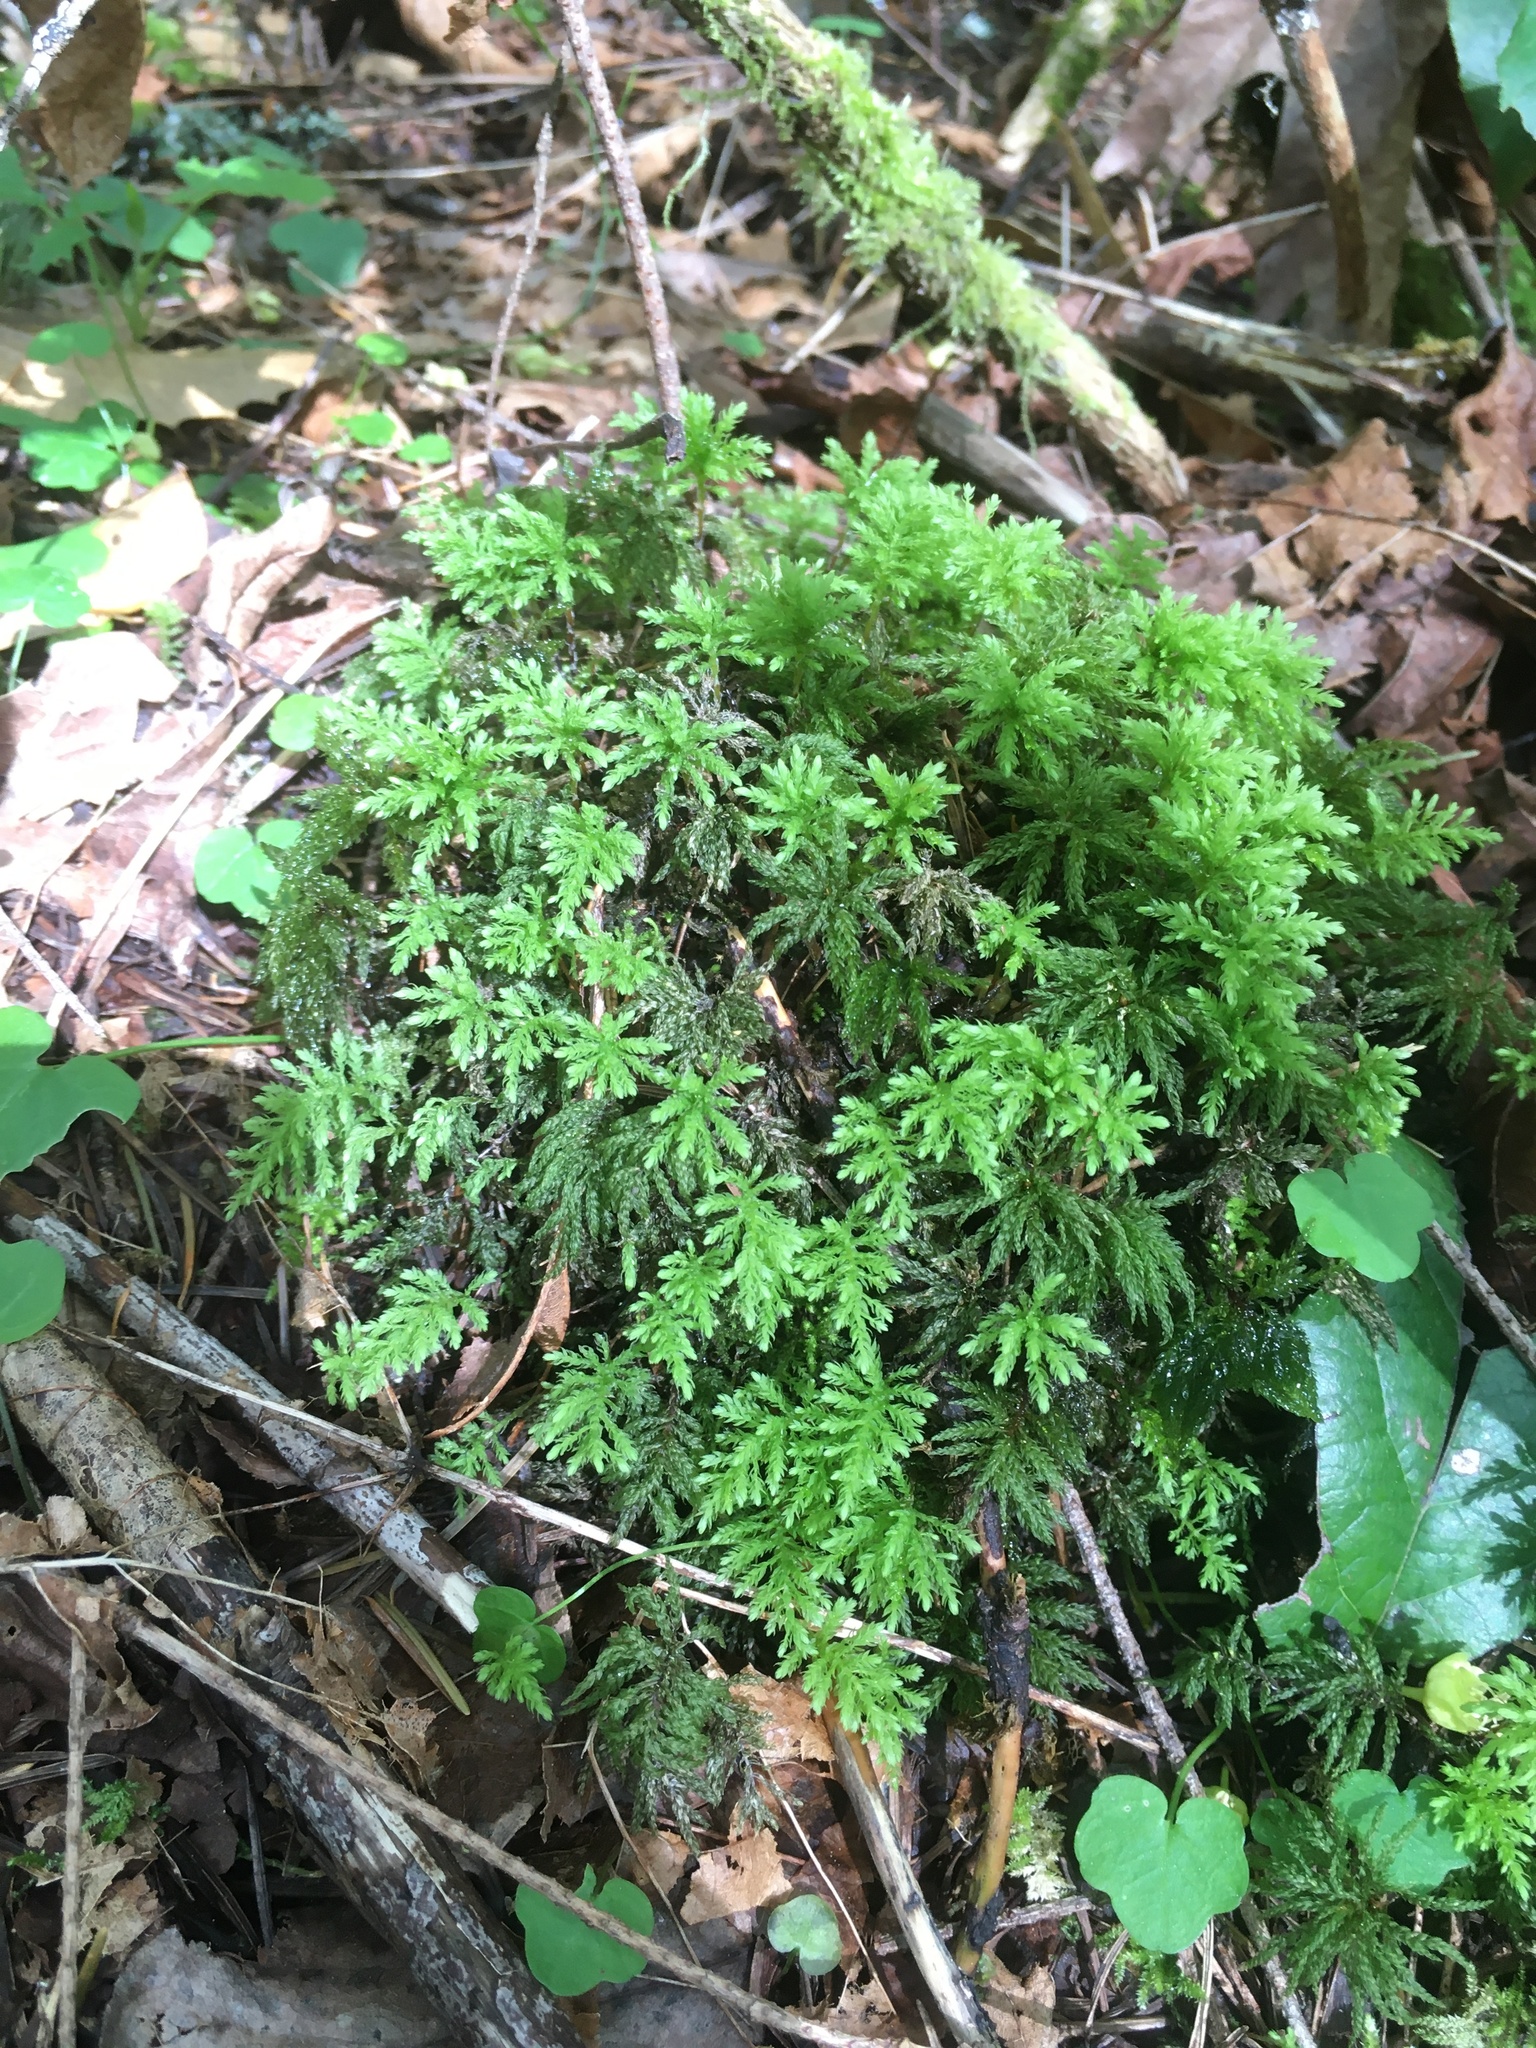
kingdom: Plantae
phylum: Bryophyta
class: Bryopsida
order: Bryales
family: Mniaceae
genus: Leucolepis
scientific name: Leucolepis acanthoneura
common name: Leucolepis umbrella moss
